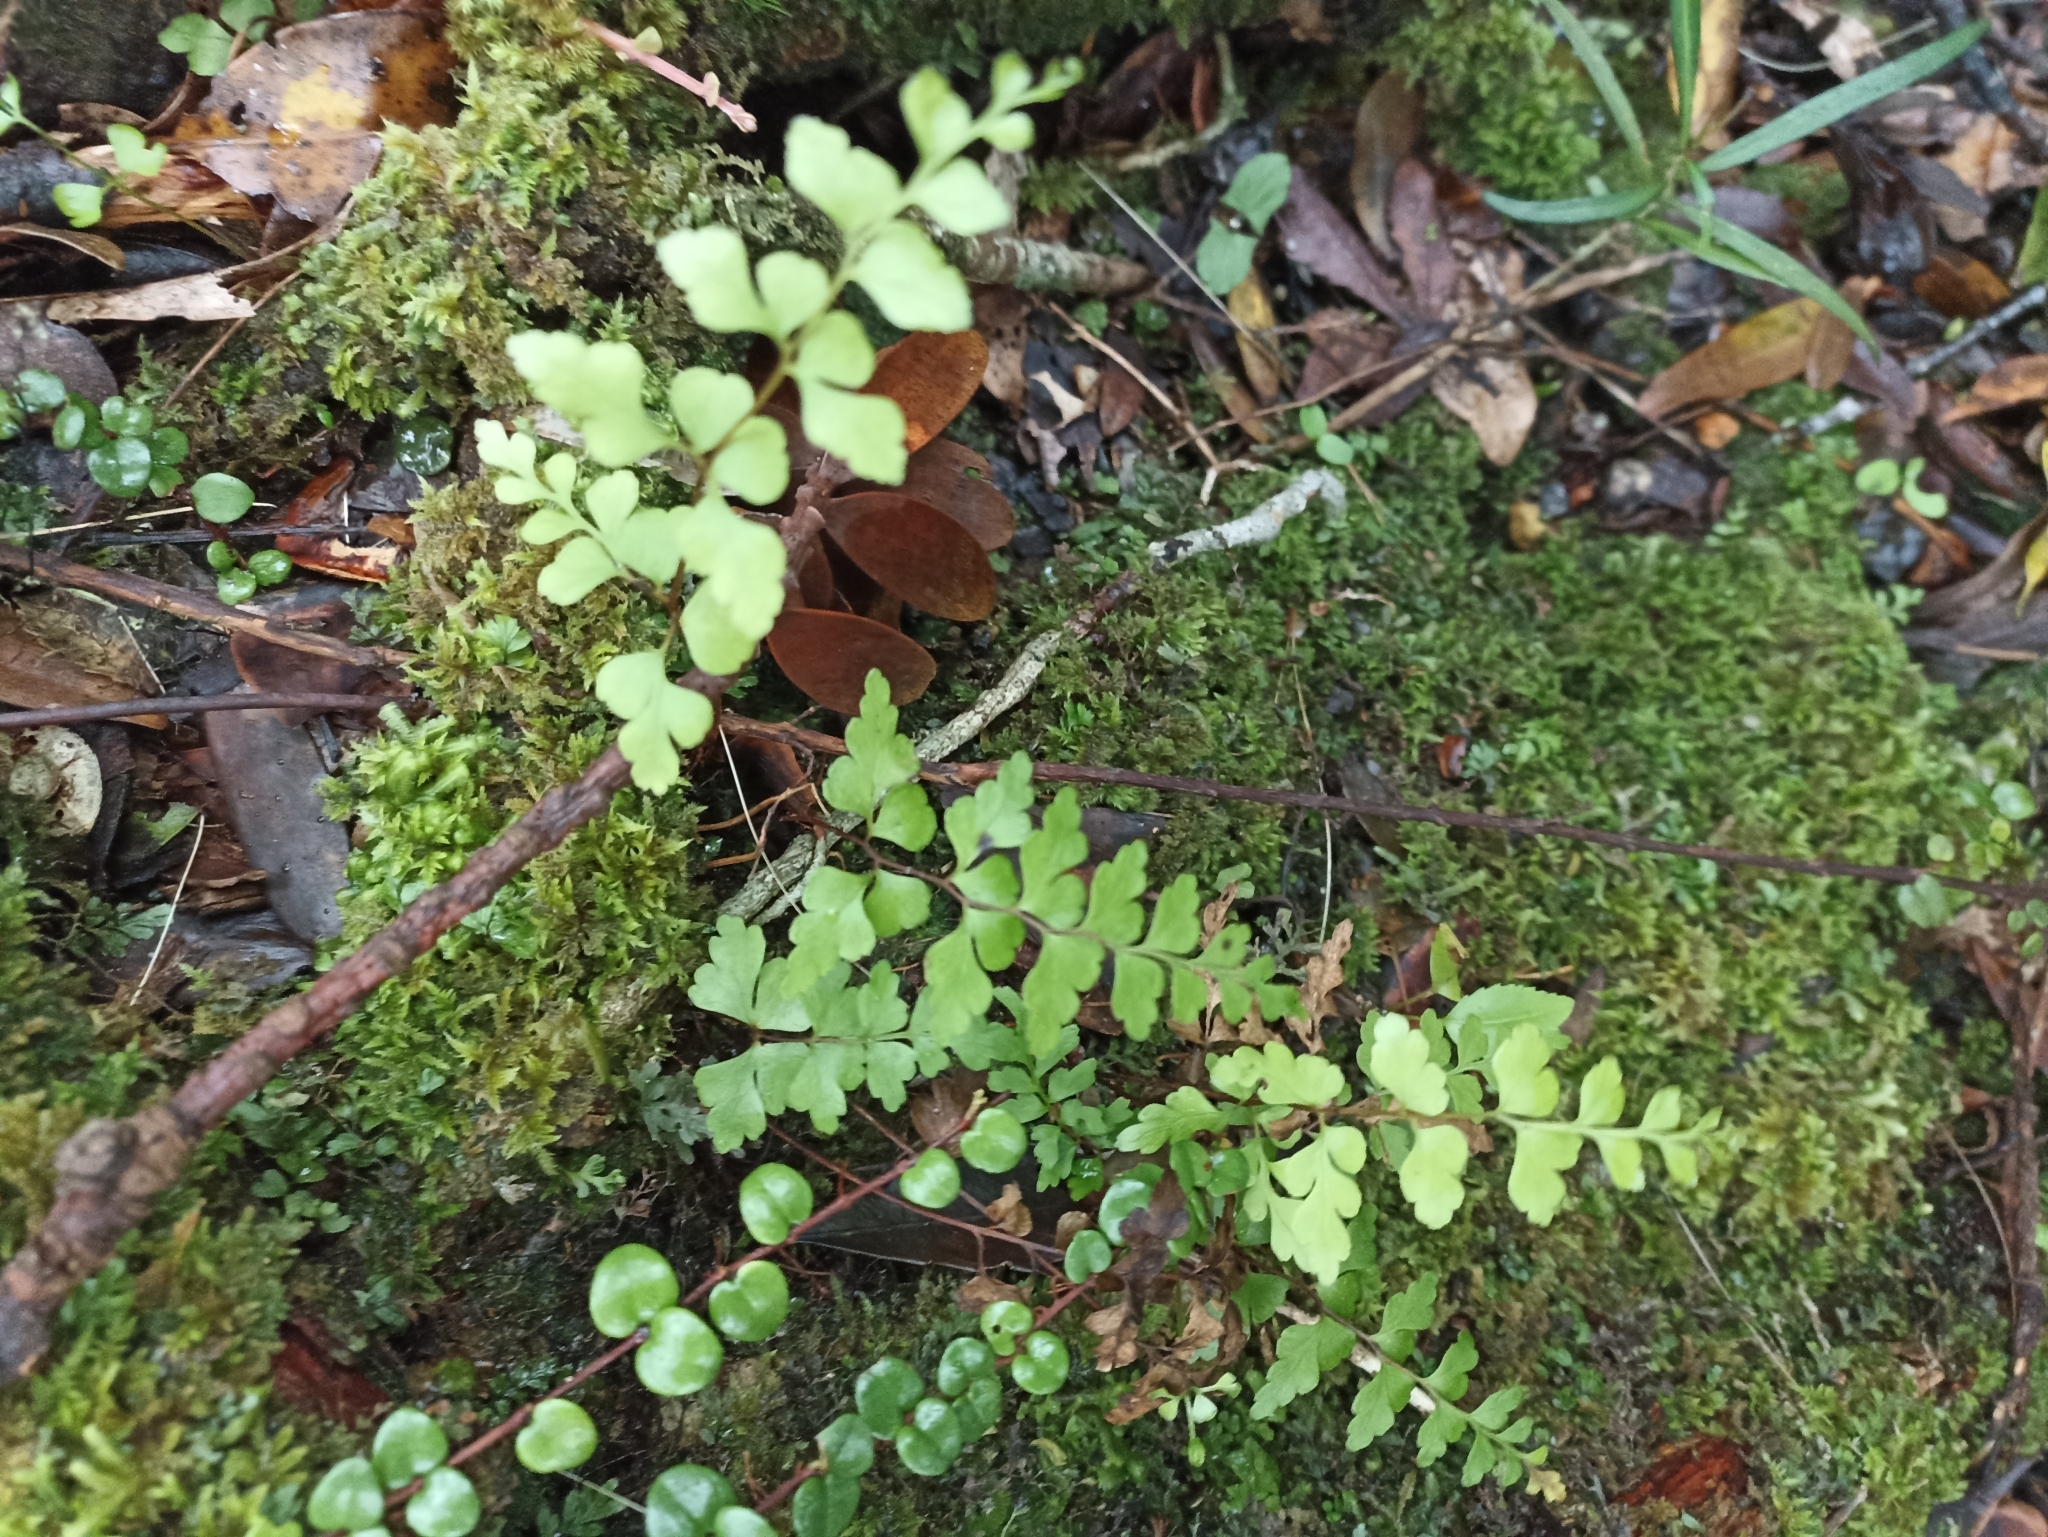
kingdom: Plantae
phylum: Tracheophyta
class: Polypodiopsida
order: Polypodiales
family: Lindsaeaceae
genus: Lindsaea
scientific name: Lindsaea trichomanoides
